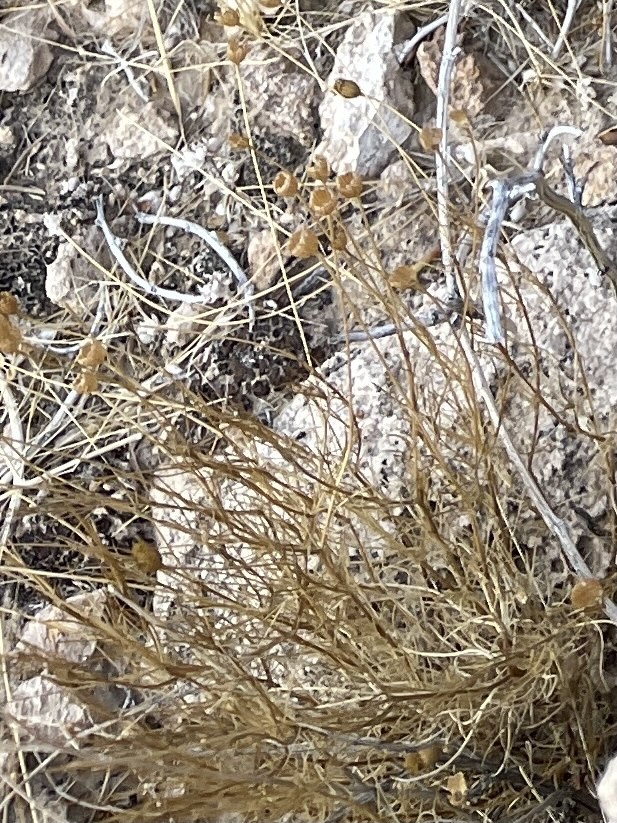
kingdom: Plantae
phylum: Tracheophyta
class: Magnoliopsida
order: Asterales
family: Asteraceae
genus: Thymophylla
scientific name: Thymophylla pentachaeta
